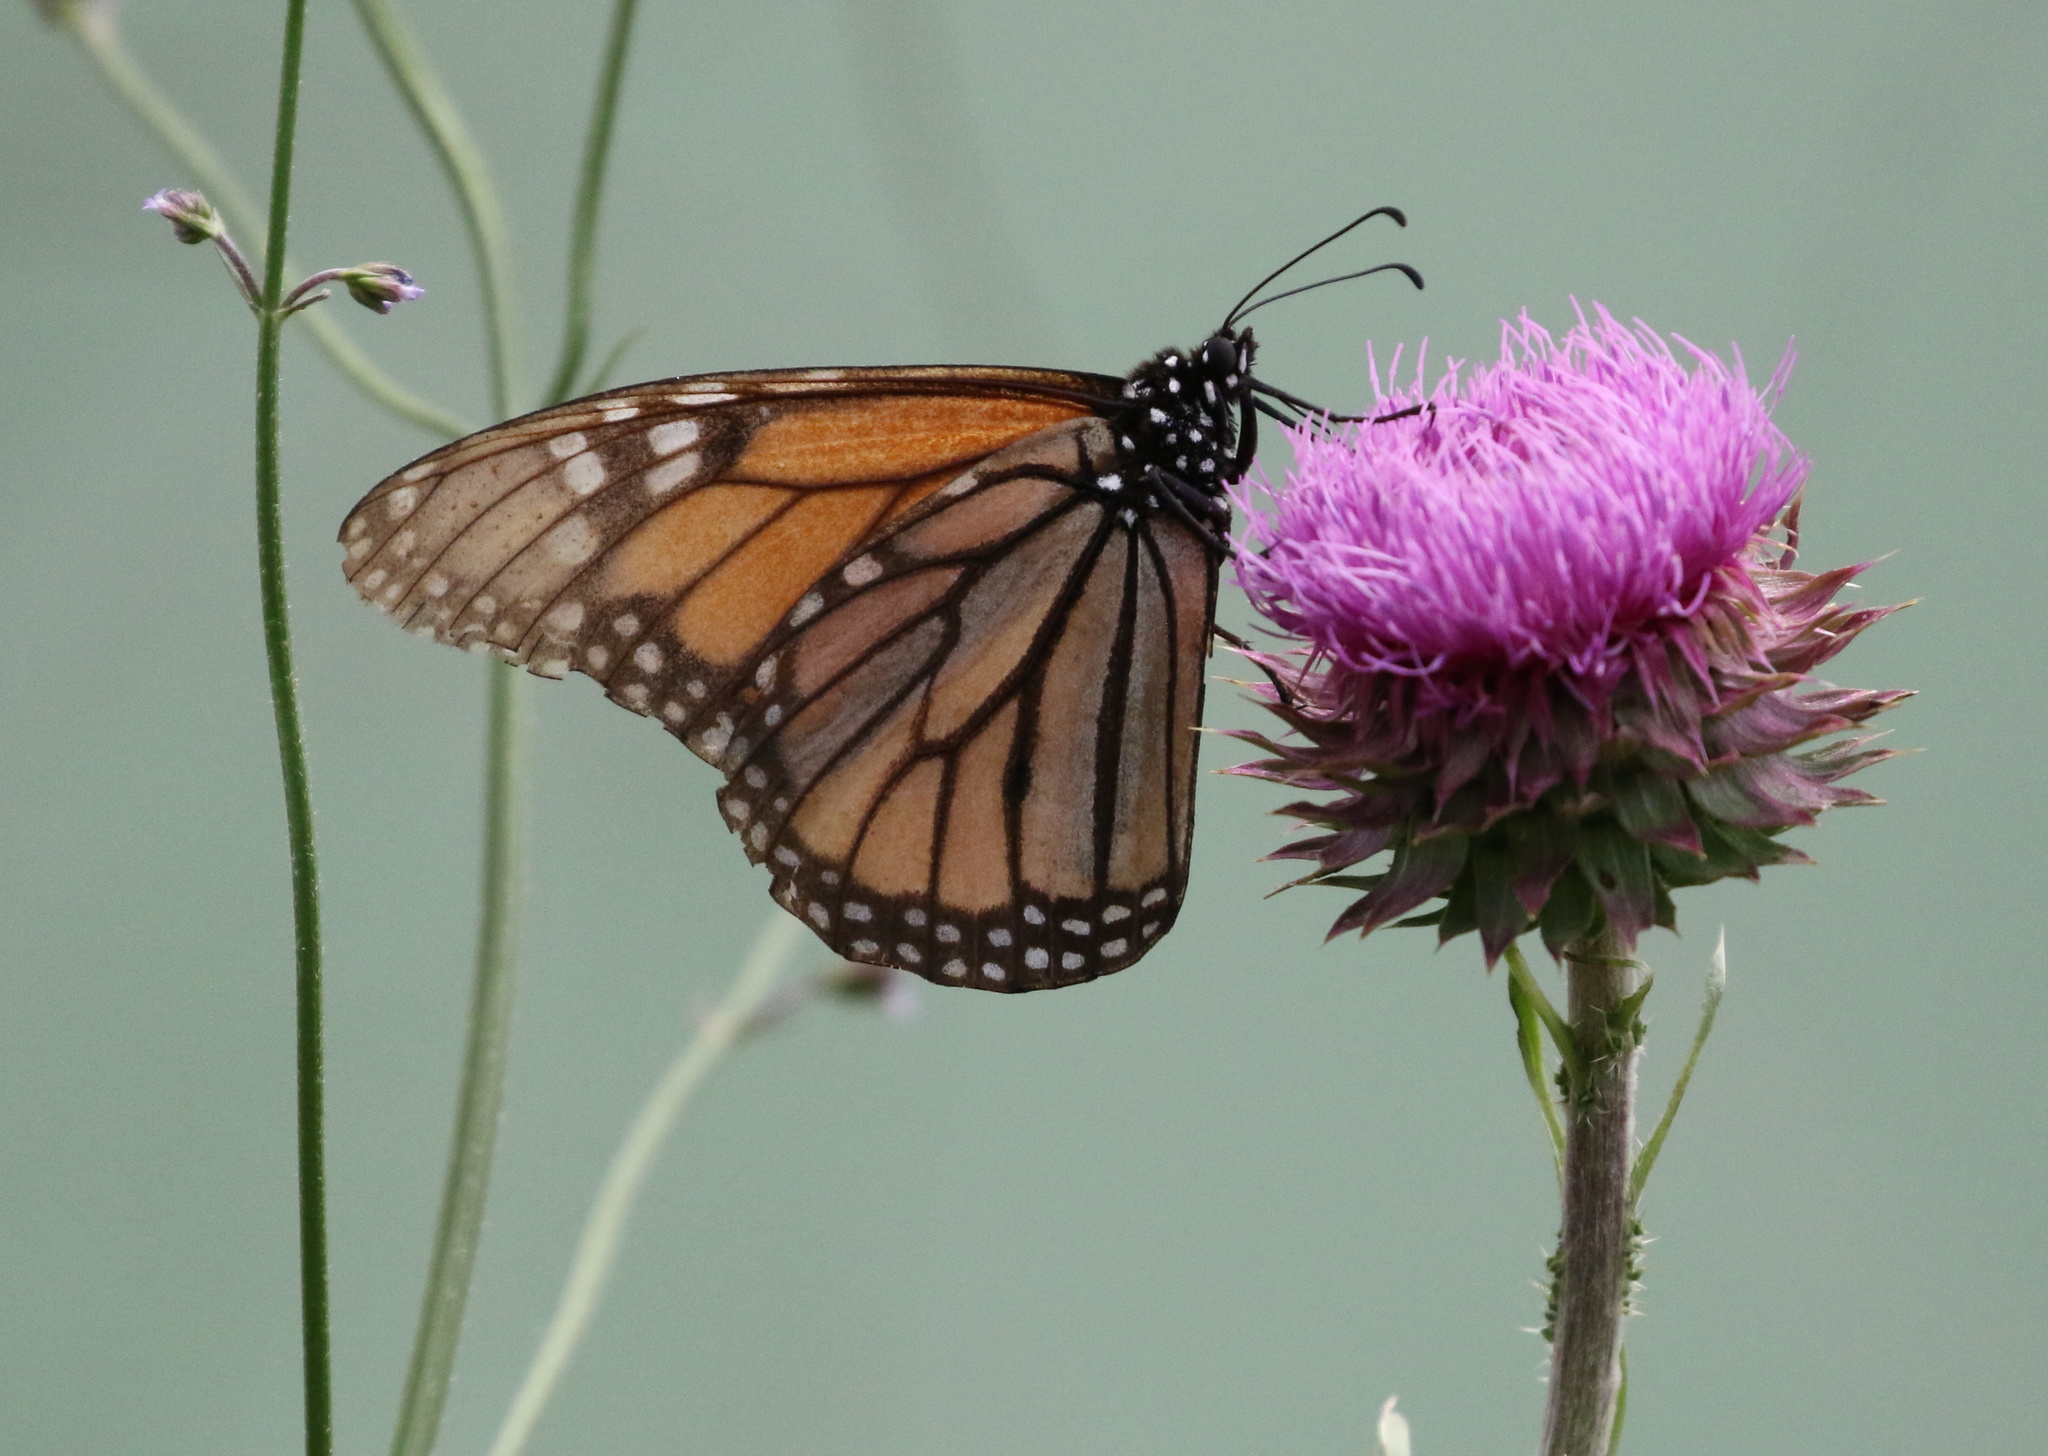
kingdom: Animalia
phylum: Arthropoda
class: Insecta
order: Lepidoptera
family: Nymphalidae
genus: Danaus
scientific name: Danaus plexippus
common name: Monarch
